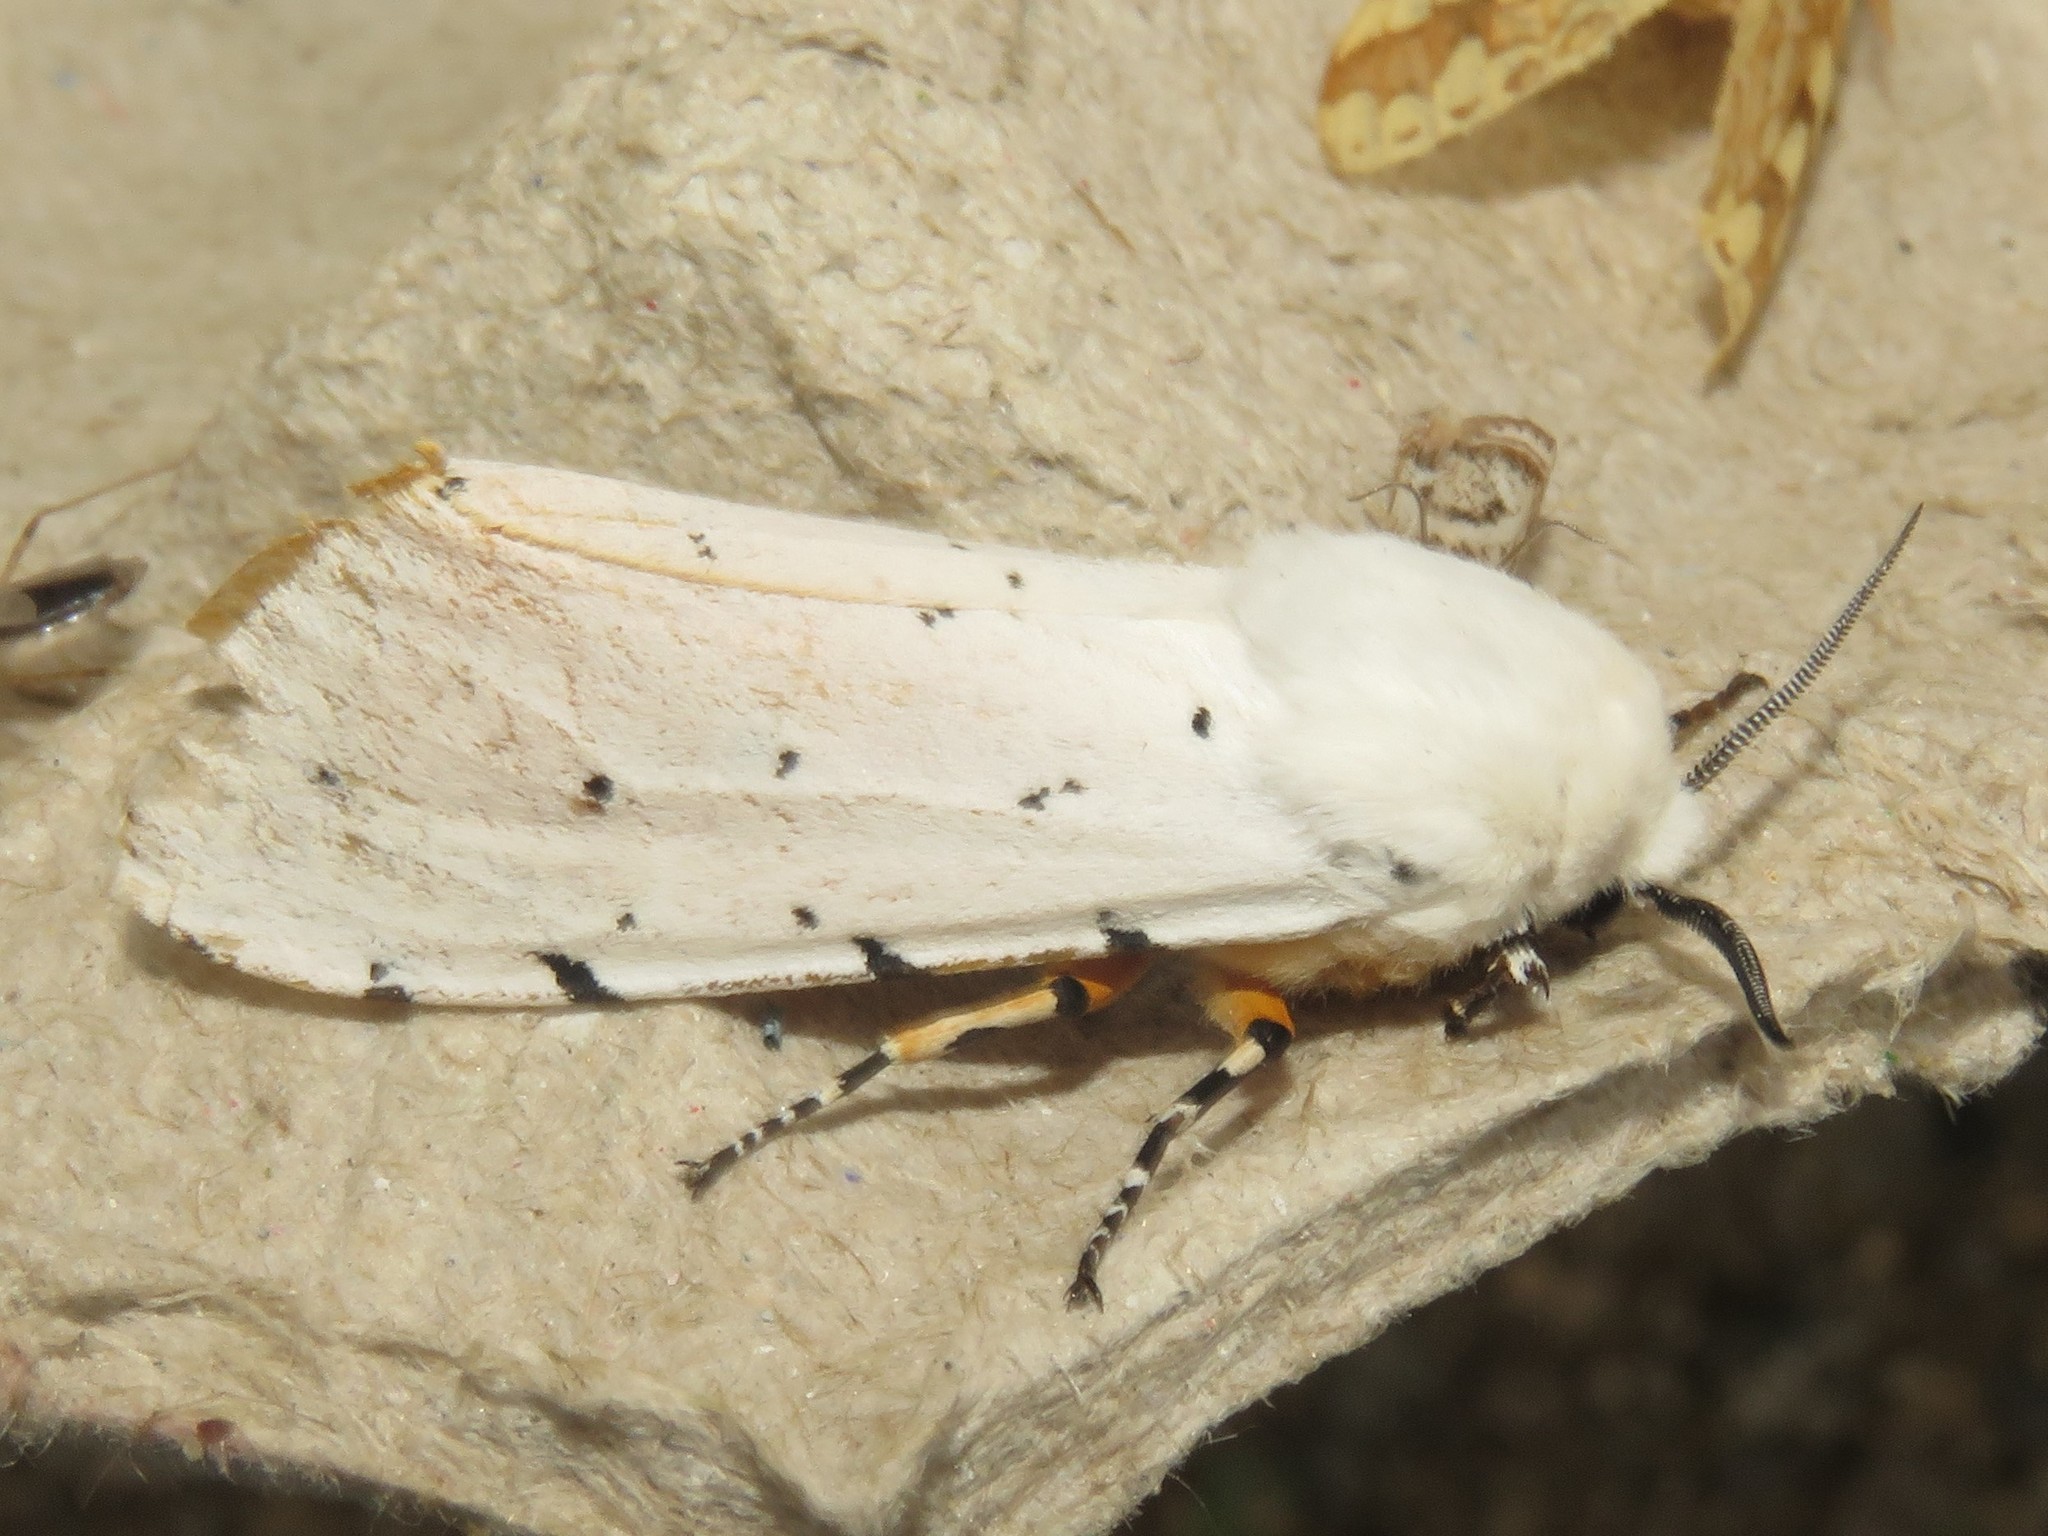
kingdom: Animalia
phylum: Arthropoda
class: Insecta
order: Lepidoptera
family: Erebidae
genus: Estigmene
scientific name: Estigmene acrea
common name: Salt marsh moth
